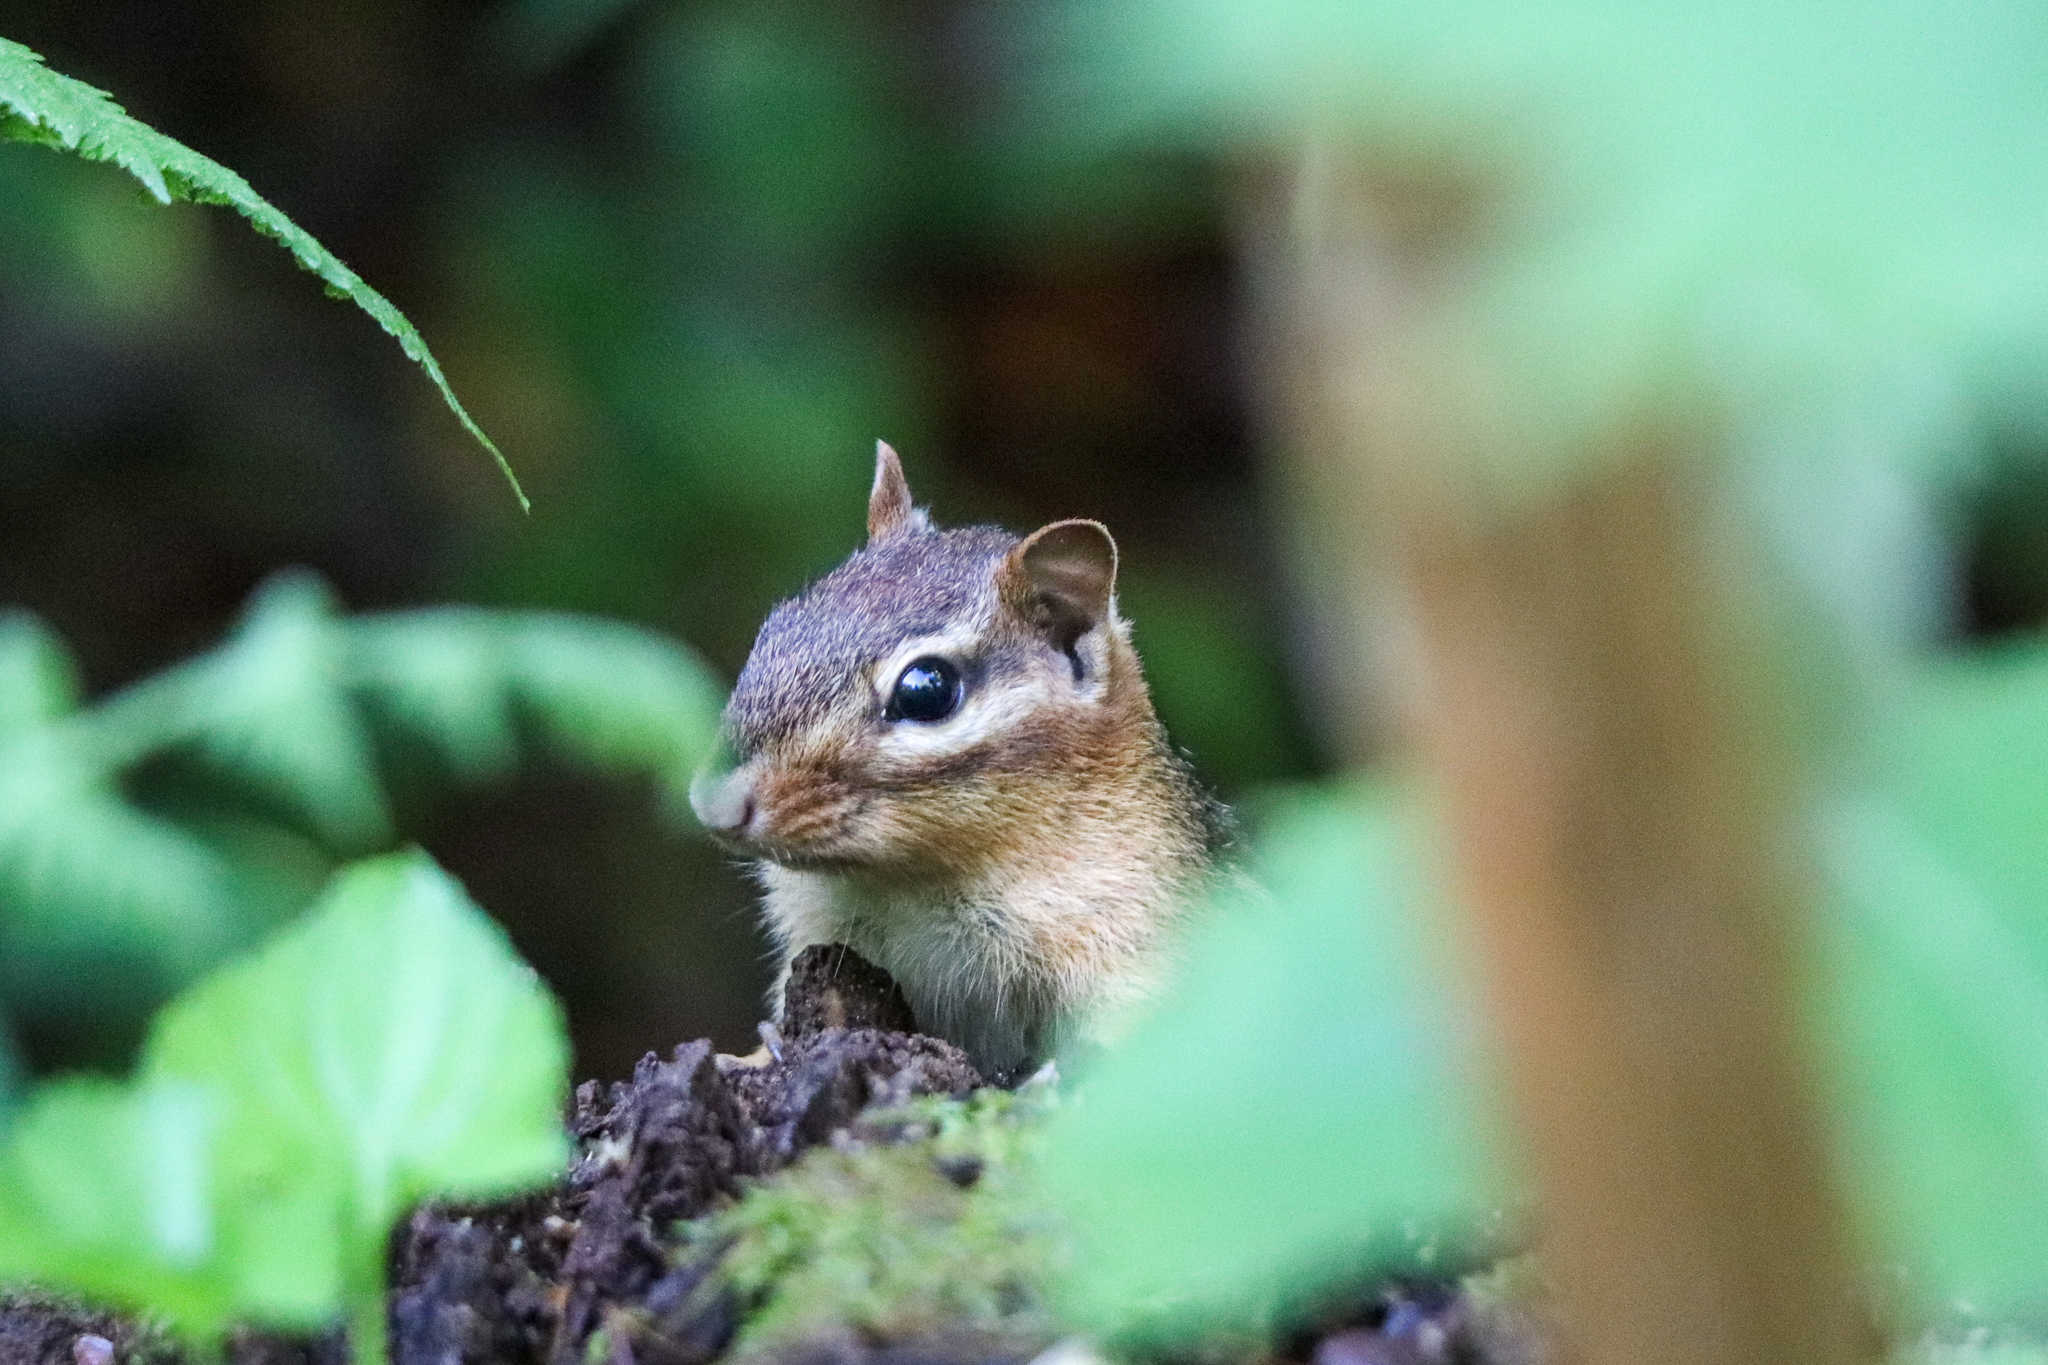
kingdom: Animalia
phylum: Chordata
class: Mammalia
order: Rodentia
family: Sciuridae
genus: Tamias
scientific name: Tamias striatus
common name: Eastern chipmunk
